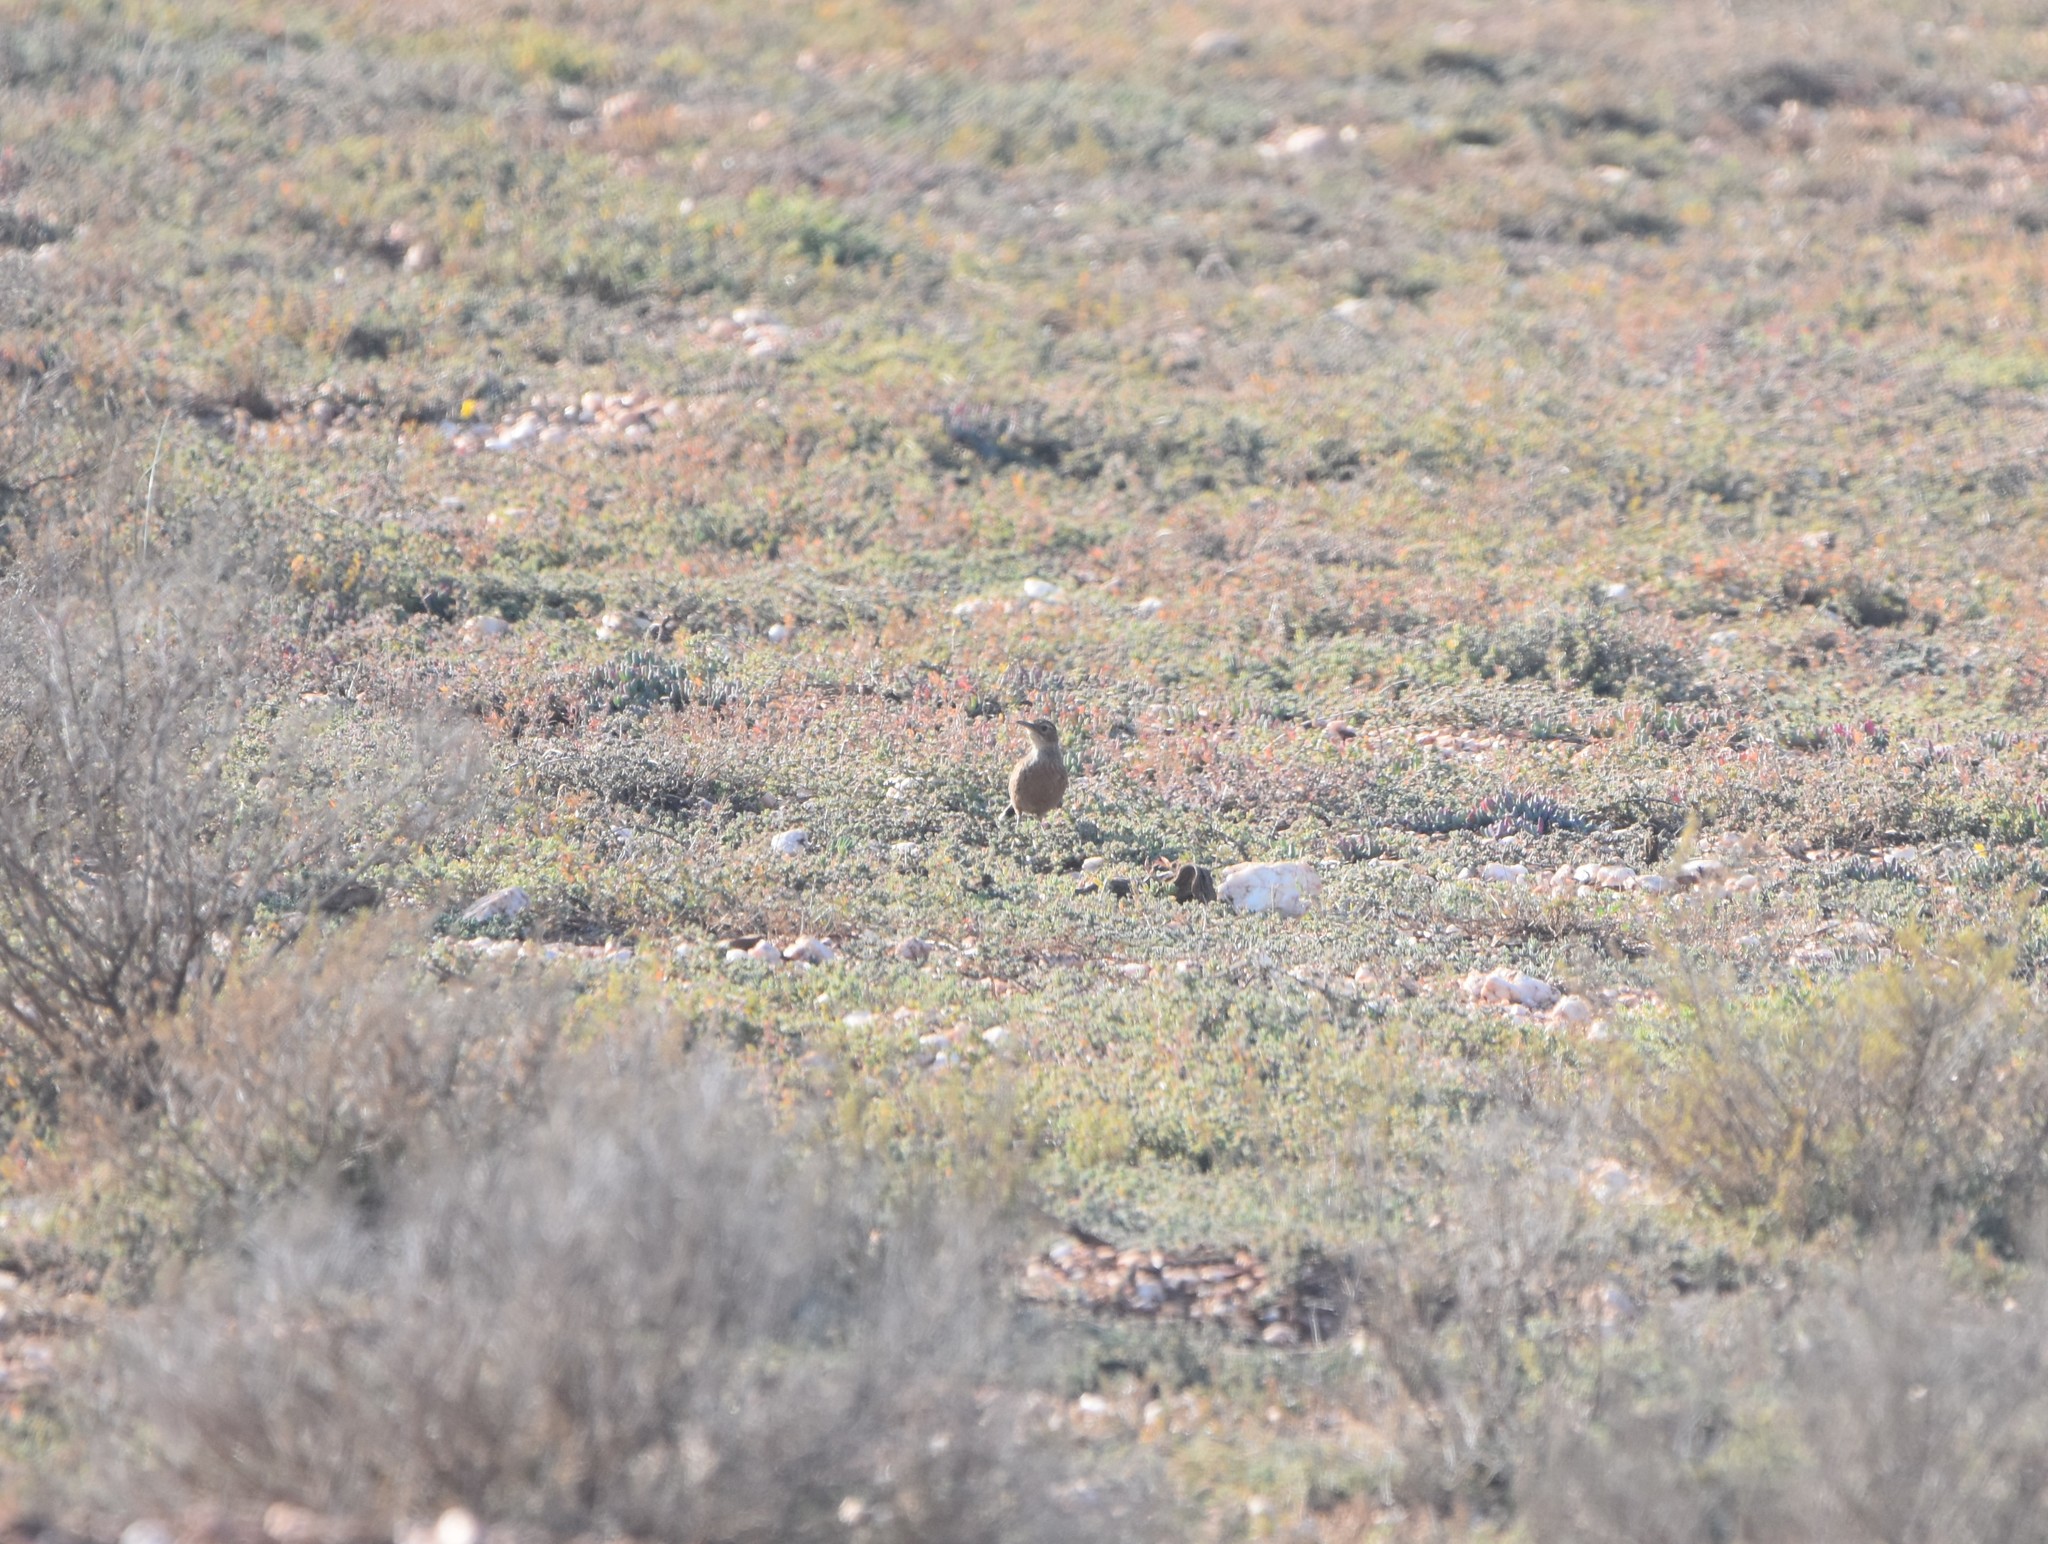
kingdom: Animalia
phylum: Chordata
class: Aves
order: Passeriformes
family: Alaudidae
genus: Chersomanes
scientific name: Chersomanes albofasciata
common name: Spike-heeled lark
